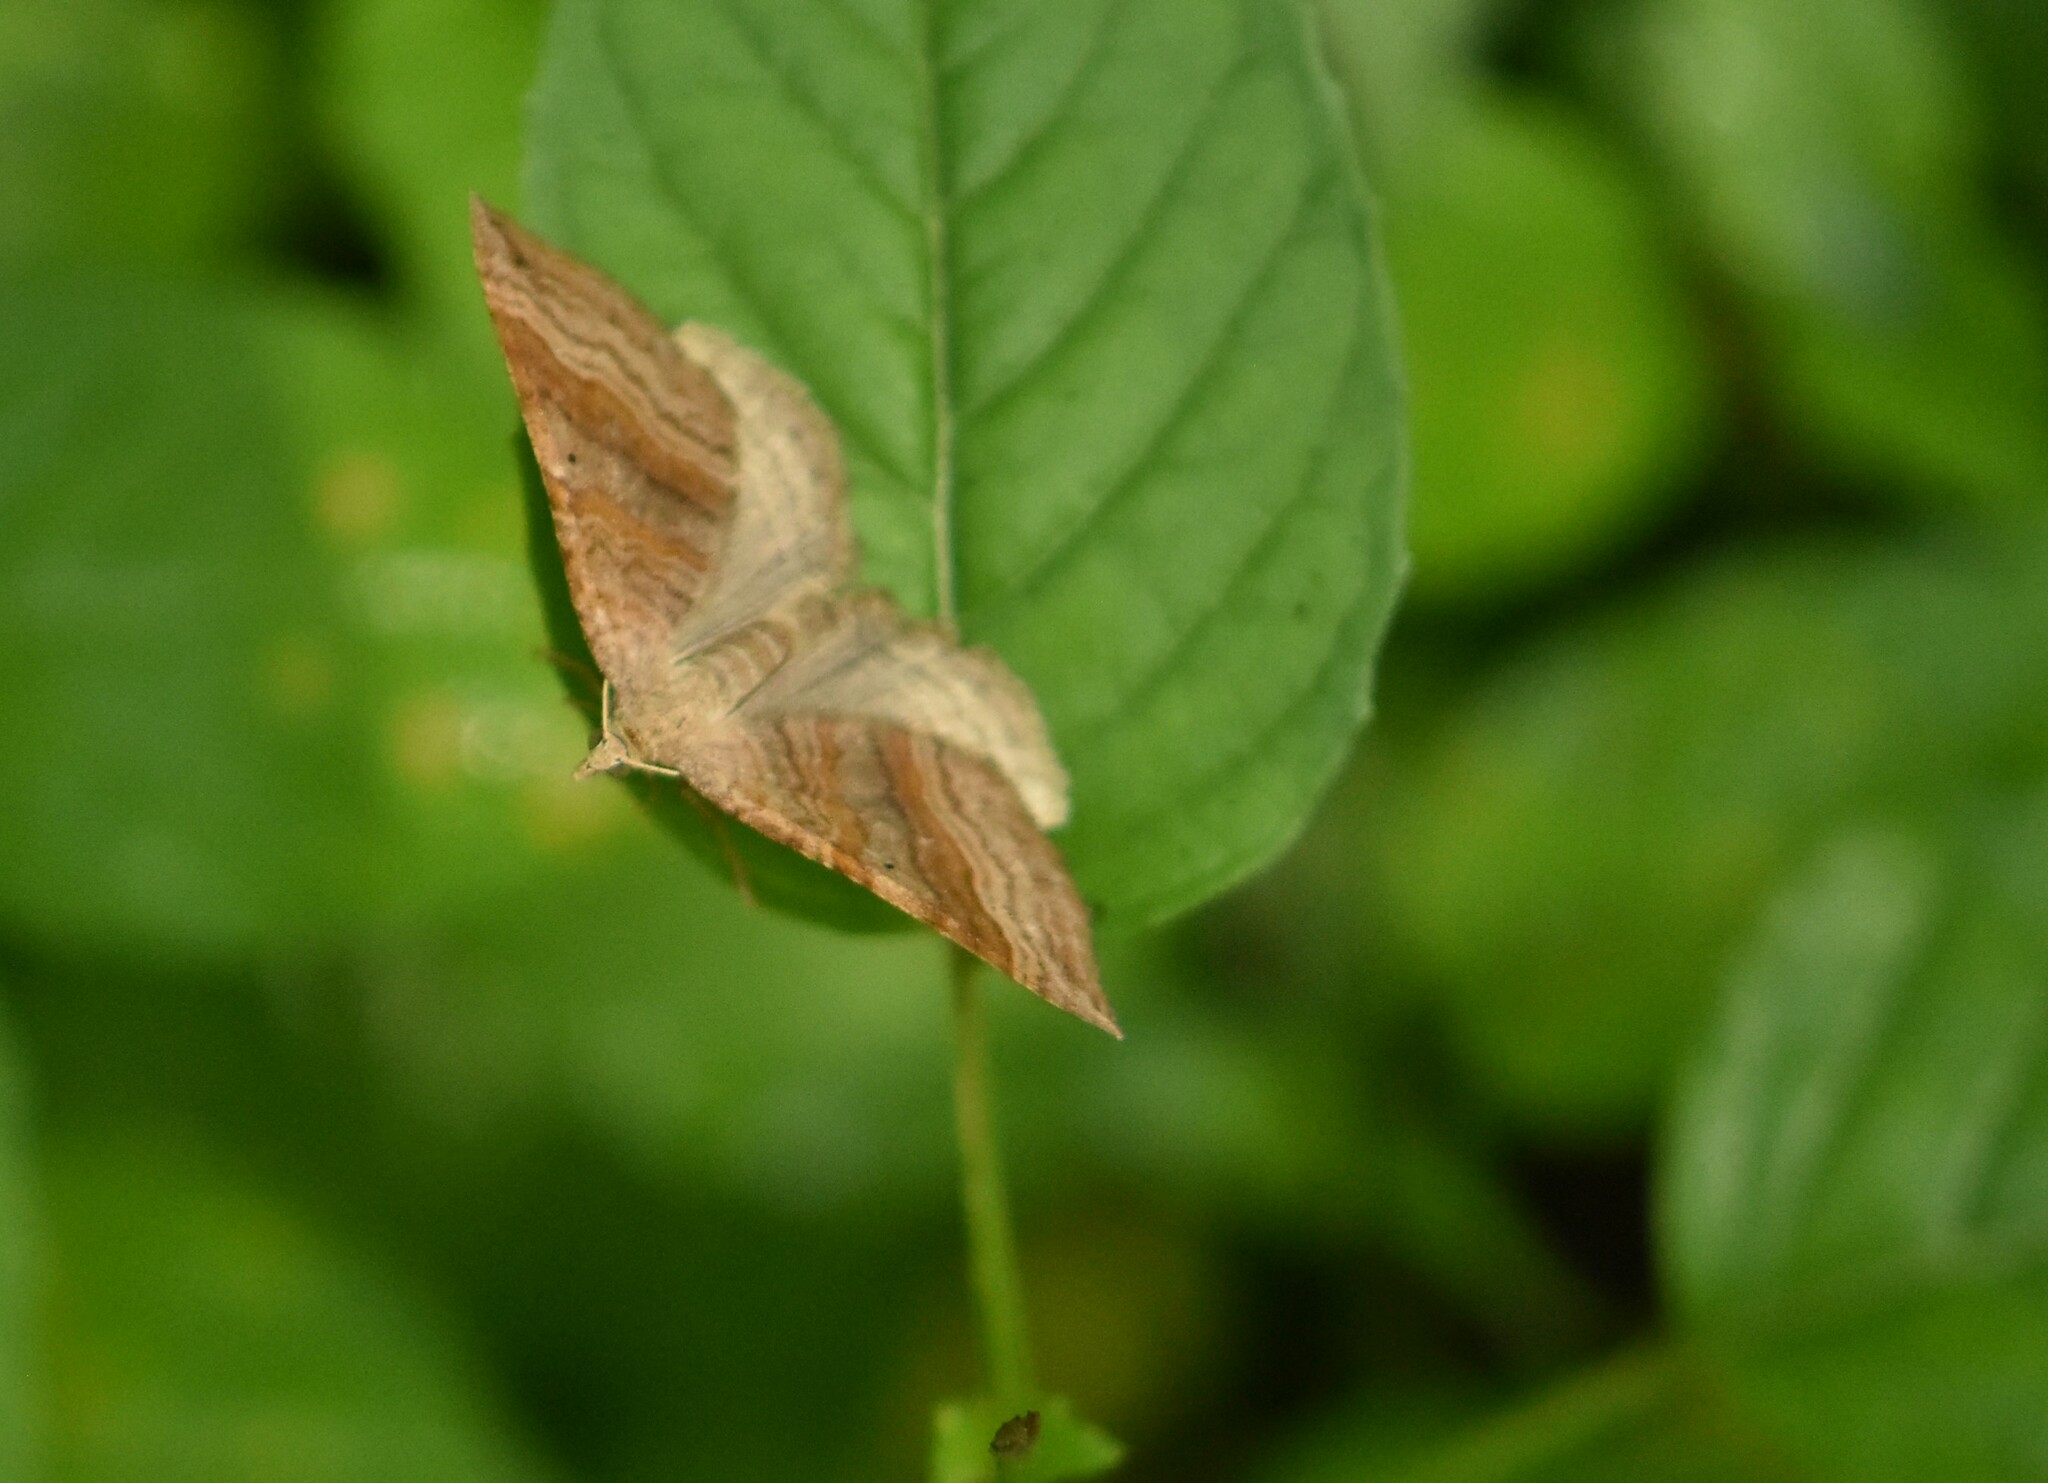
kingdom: Animalia
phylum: Arthropoda
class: Insecta
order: Lepidoptera
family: Geometridae
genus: Scotopteryx
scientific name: Scotopteryx chenopodiata
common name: Shaded broad-bar
